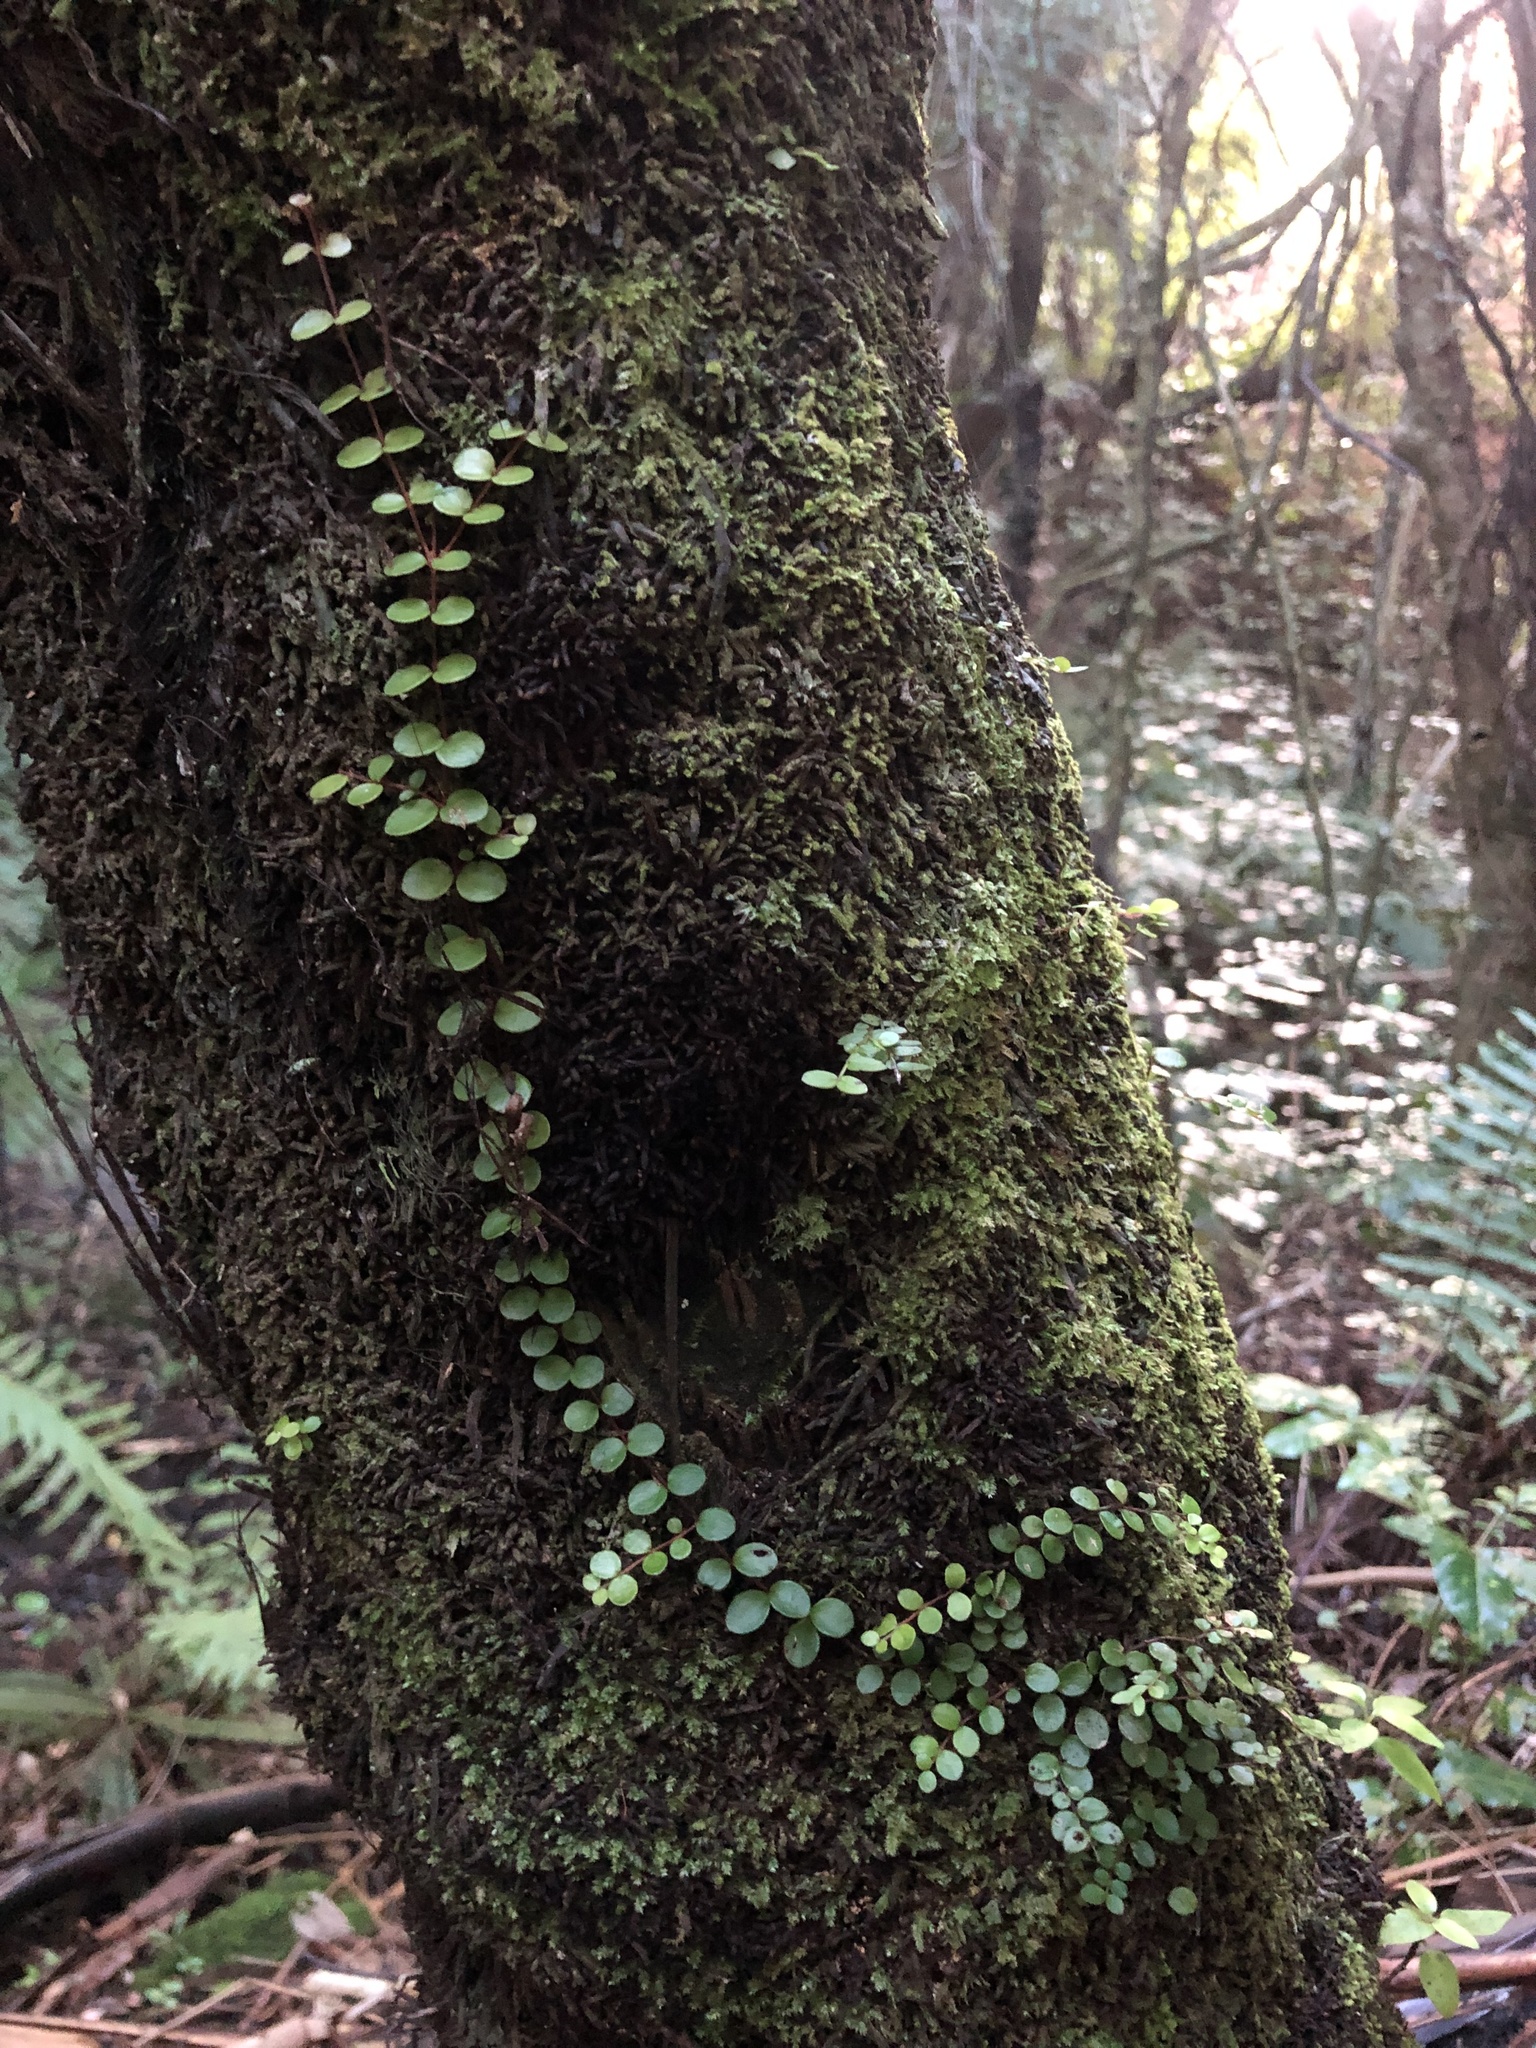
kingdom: Plantae
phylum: Tracheophyta
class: Magnoliopsida
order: Myrtales
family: Myrtaceae
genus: Metrosideros
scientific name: Metrosideros perforata
